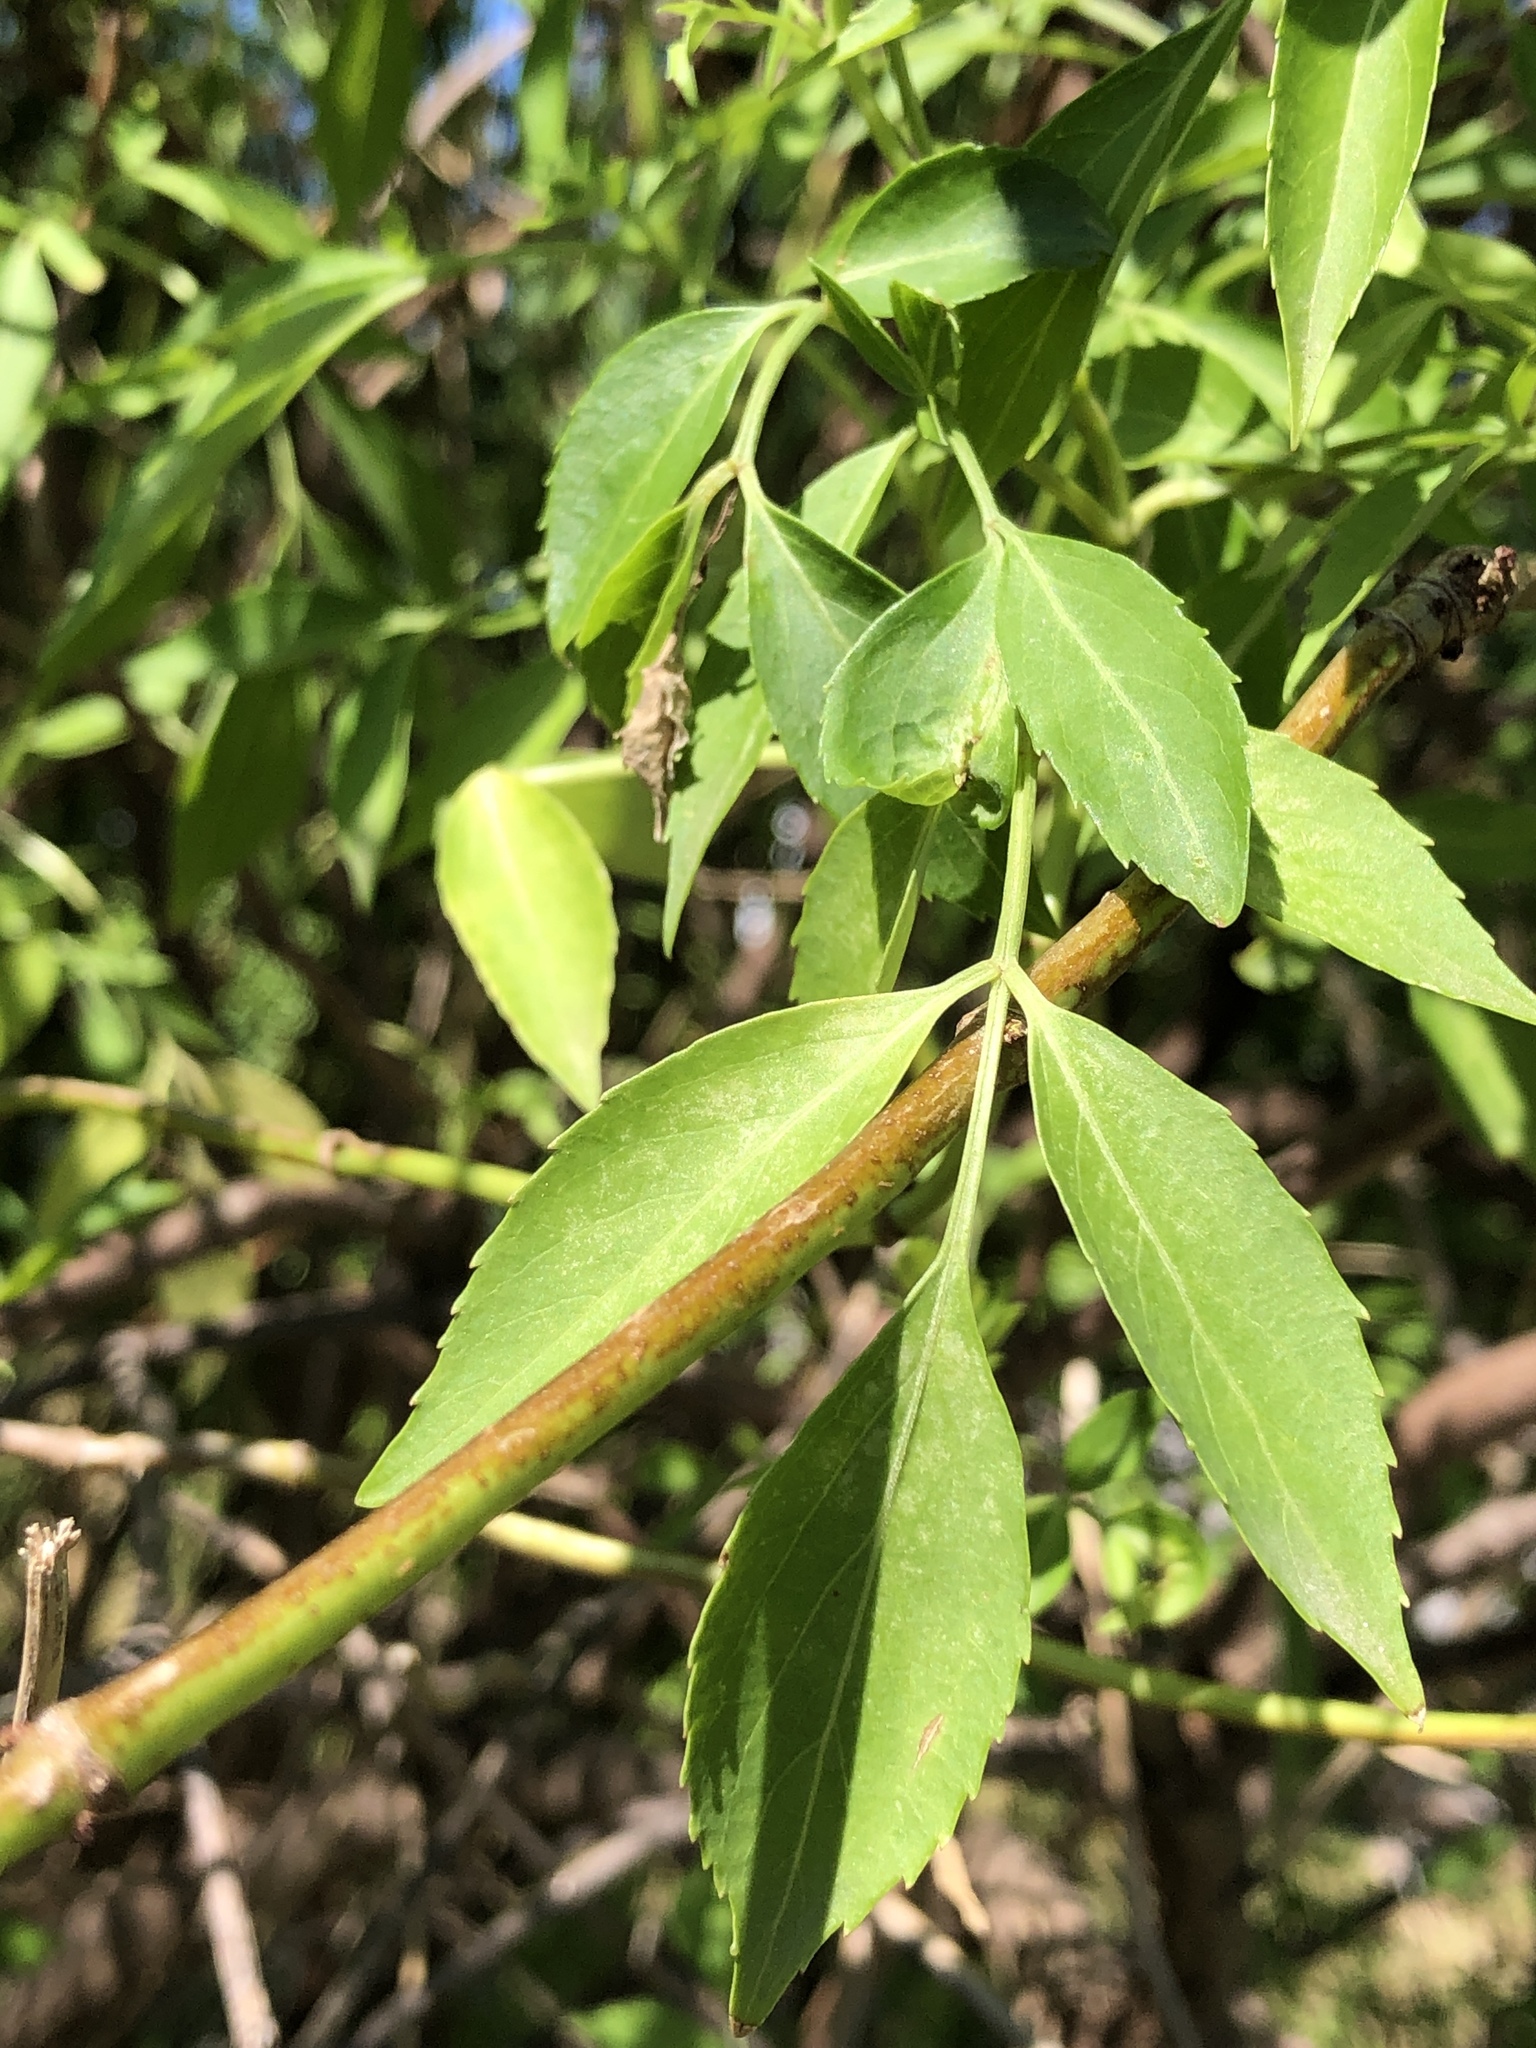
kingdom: Plantae
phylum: Tracheophyta
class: Magnoliopsida
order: Dipsacales
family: Viburnaceae
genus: Sambucus
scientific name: Sambucus canadensis
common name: American elder
